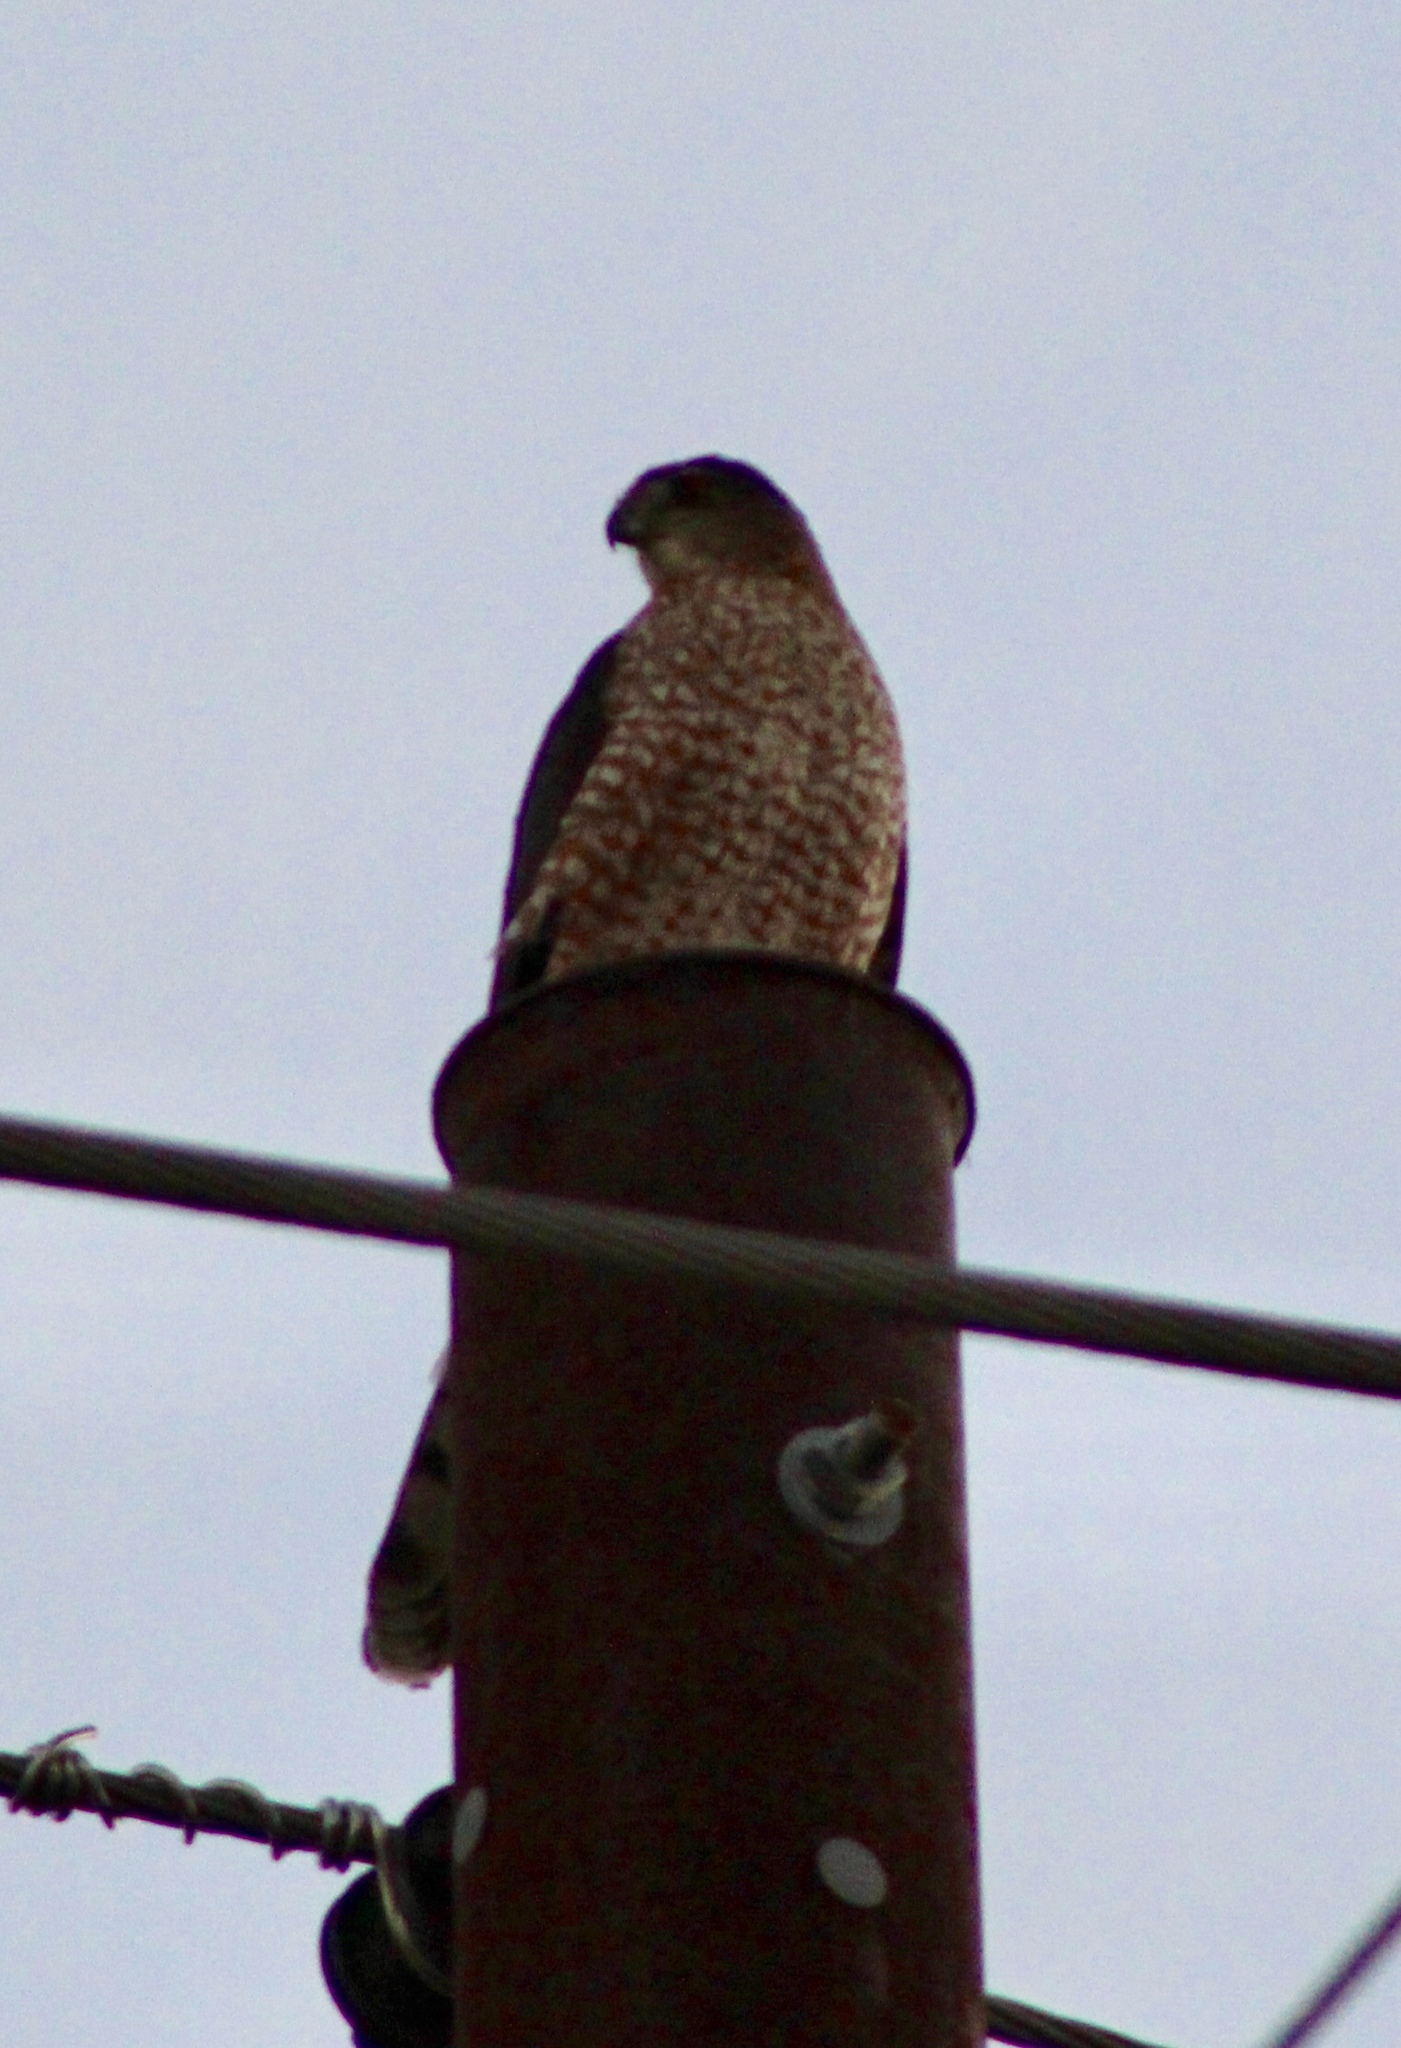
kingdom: Animalia
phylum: Chordata
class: Aves
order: Accipitriformes
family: Accipitridae
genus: Accipiter
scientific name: Accipiter cooperii
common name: Cooper's hawk
